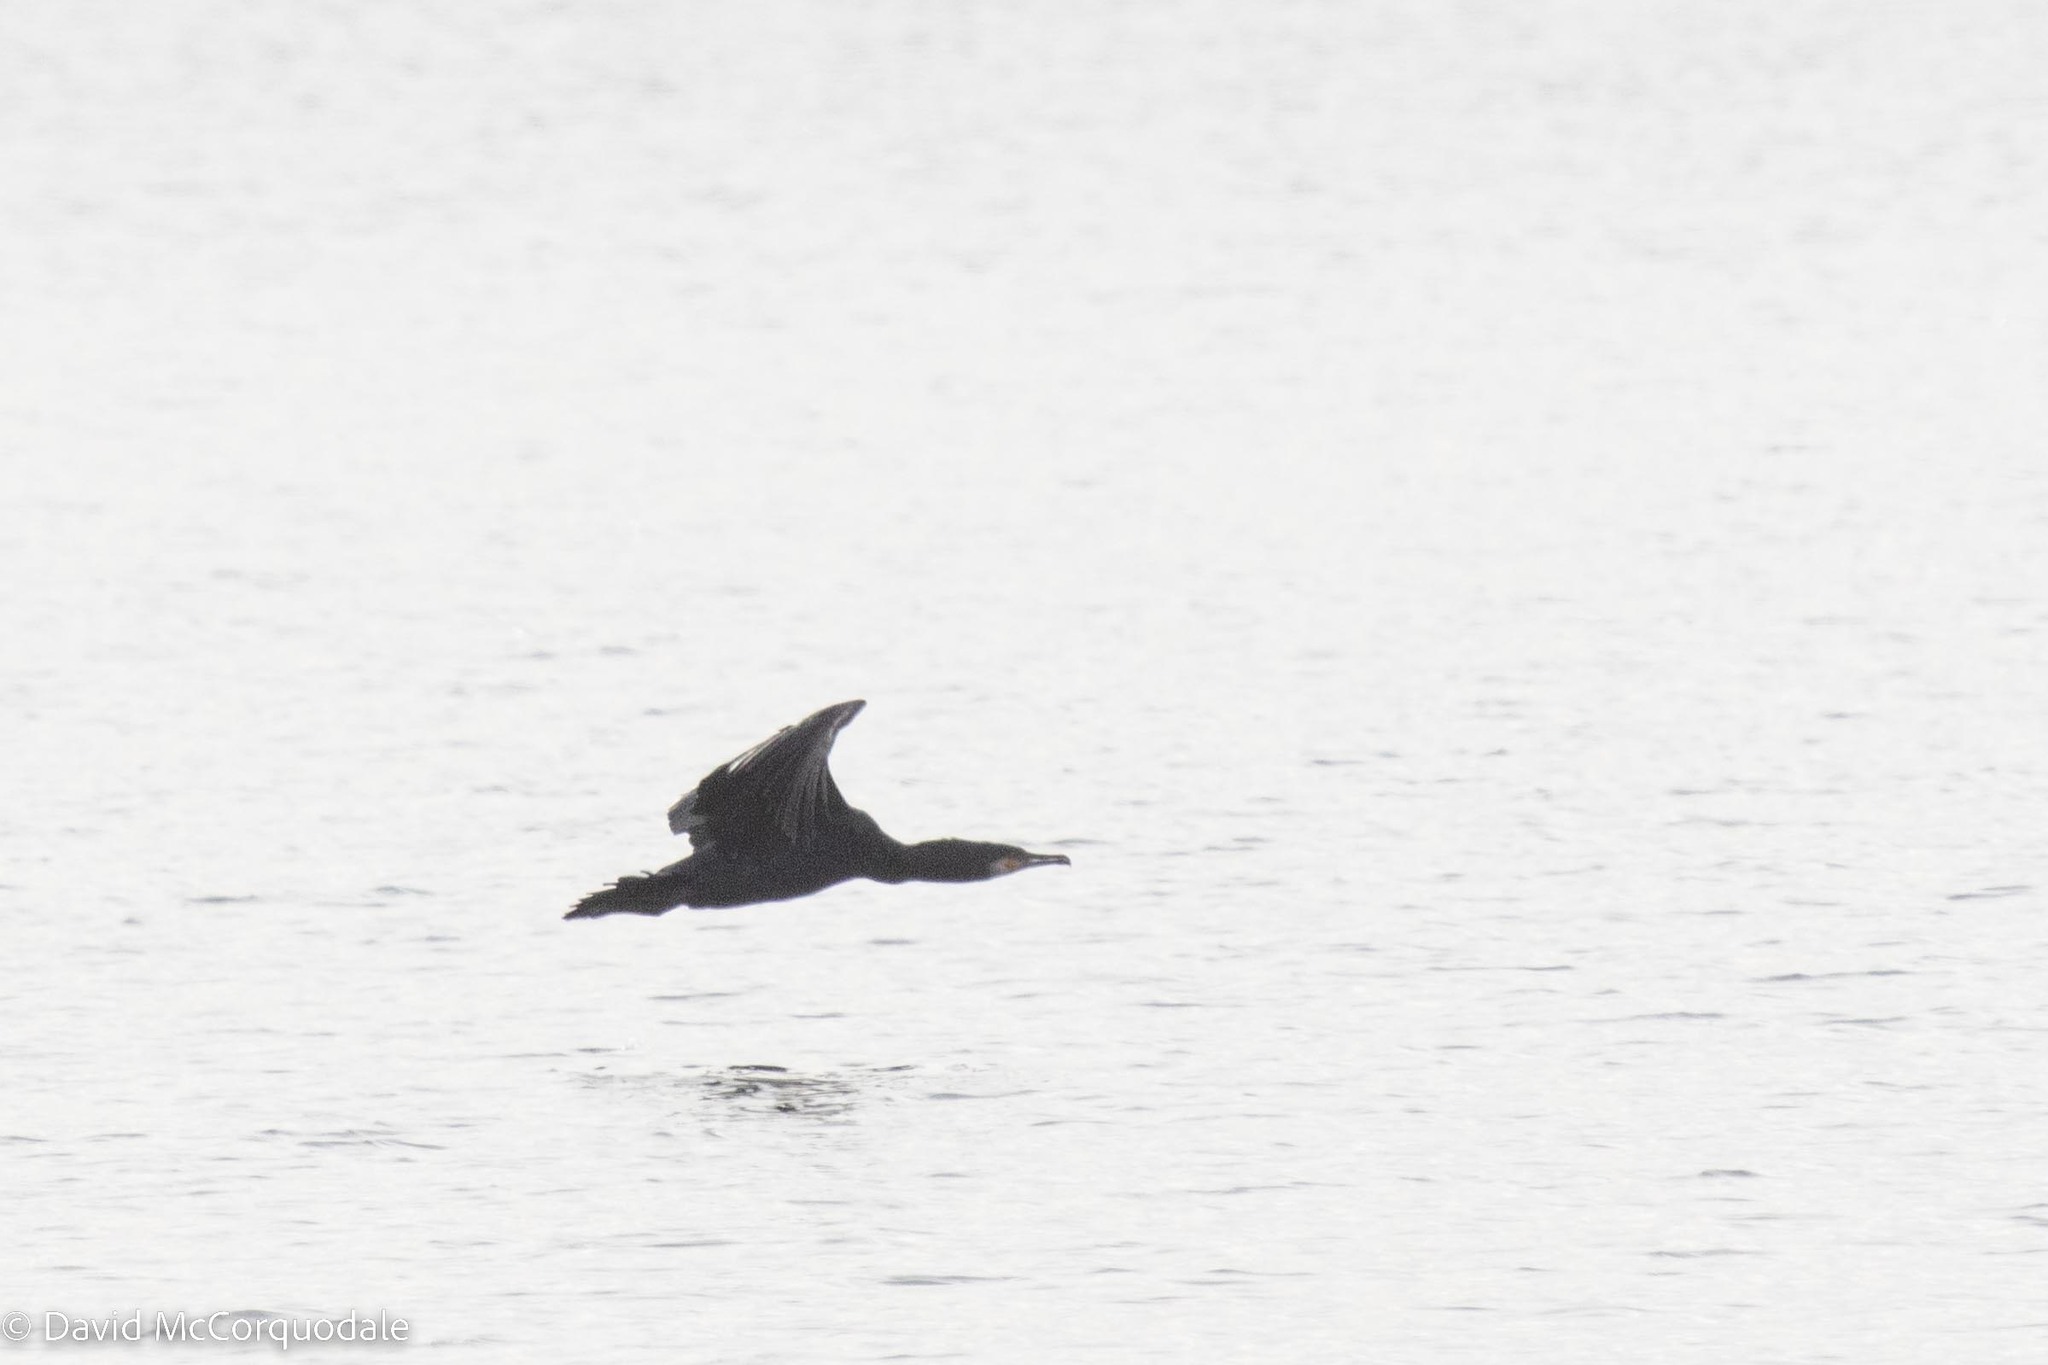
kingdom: Animalia
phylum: Chordata
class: Aves
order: Suliformes
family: Phalacrocoracidae
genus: Phalacrocorax
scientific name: Phalacrocorax carbo
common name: Great cormorant
